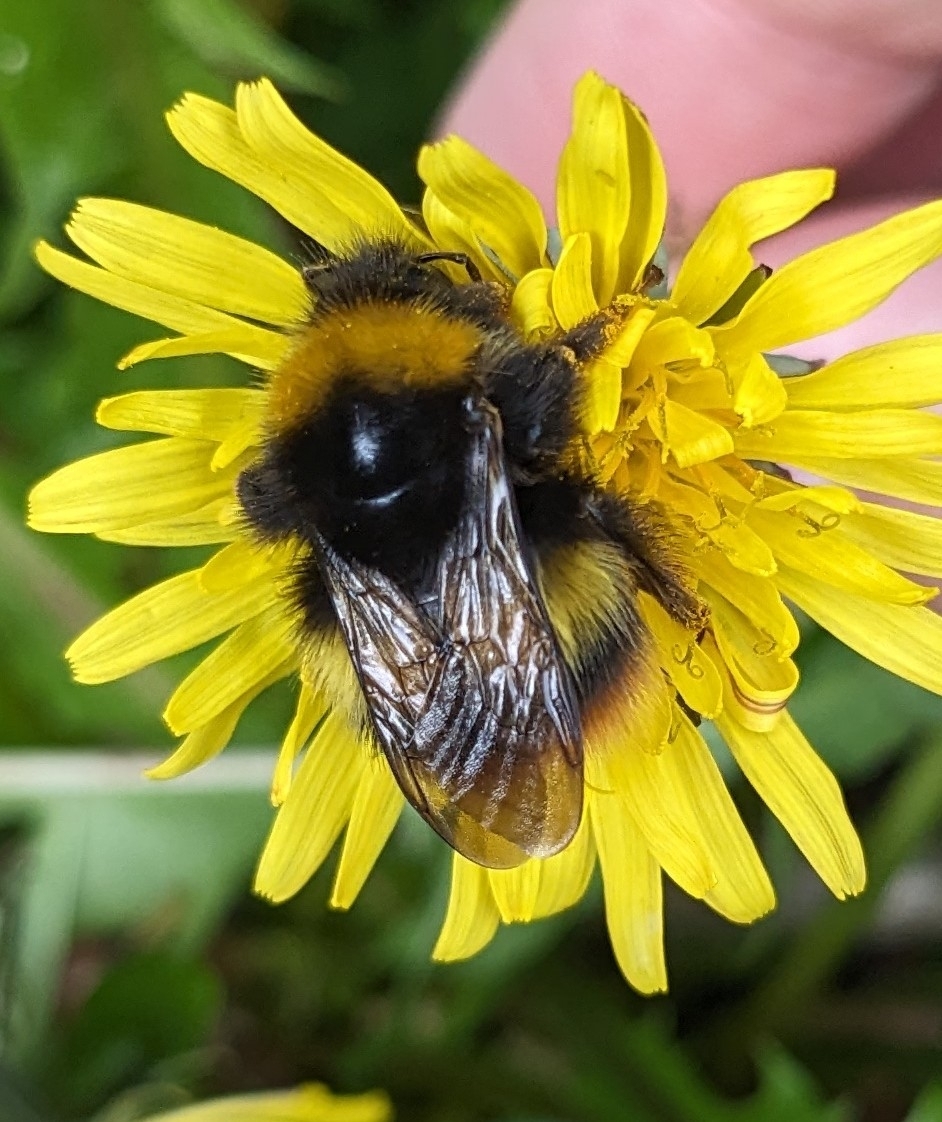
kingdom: Animalia
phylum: Arthropoda
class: Insecta
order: Hymenoptera
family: Apidae
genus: Bombus
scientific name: Bombus pratorum
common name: Early humble-bee
